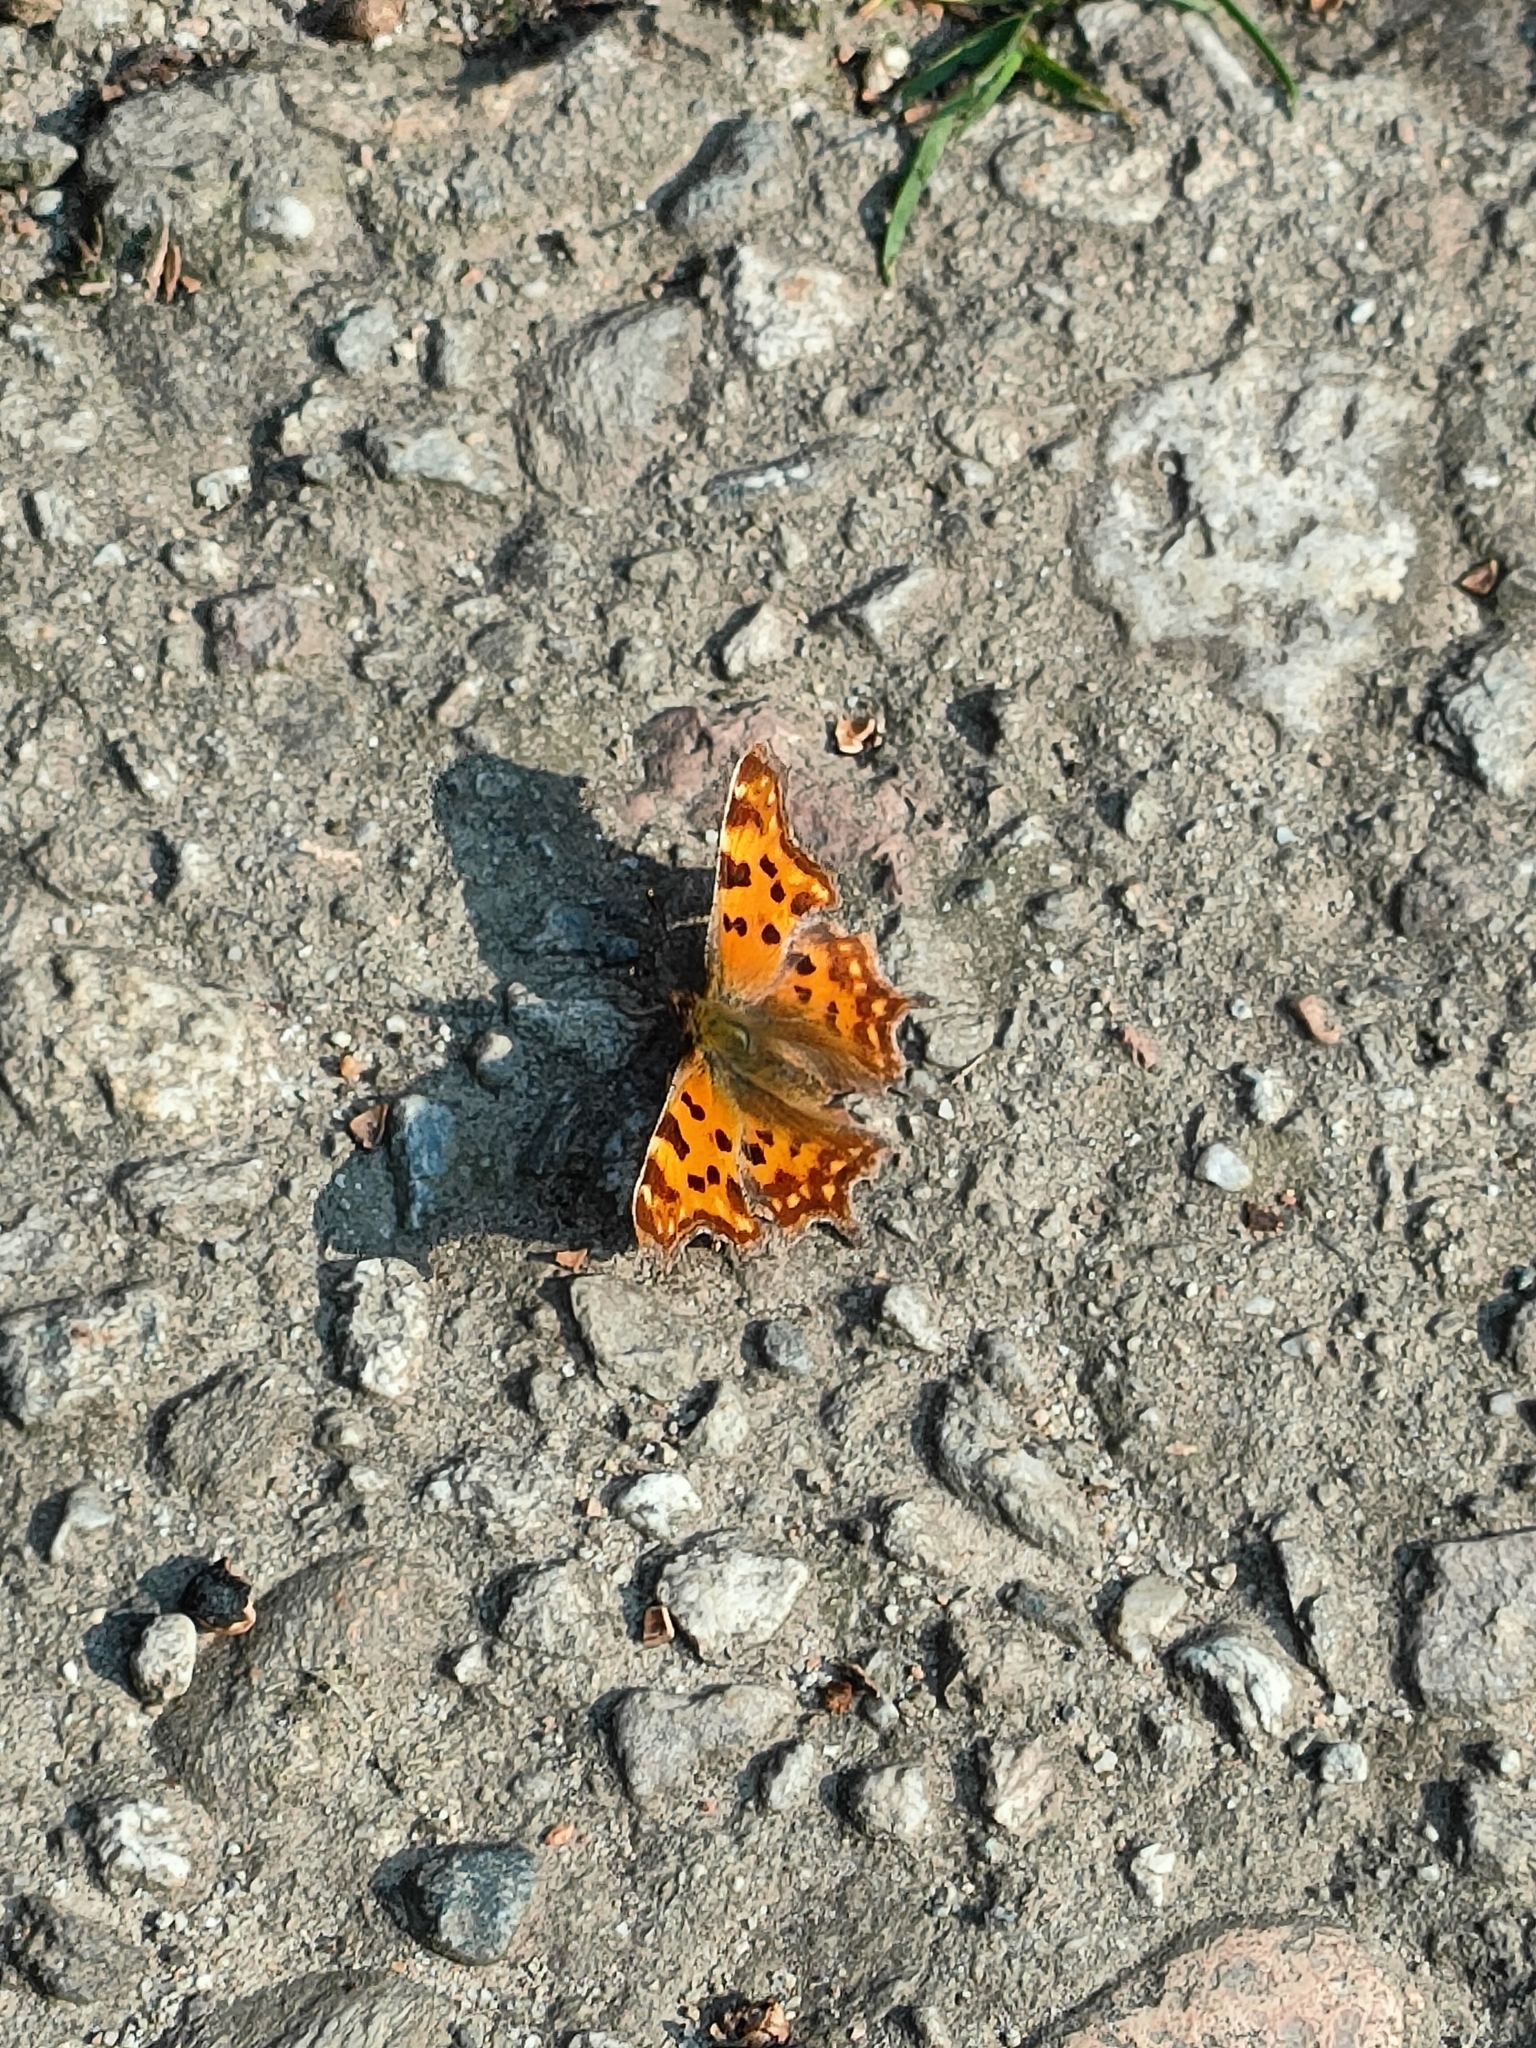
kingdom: Animalia
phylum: Arthropoda
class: Insecta
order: Lepidoptera
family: Nymphalidae
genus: Polygonia
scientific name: Polygonia c-album
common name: Comma
